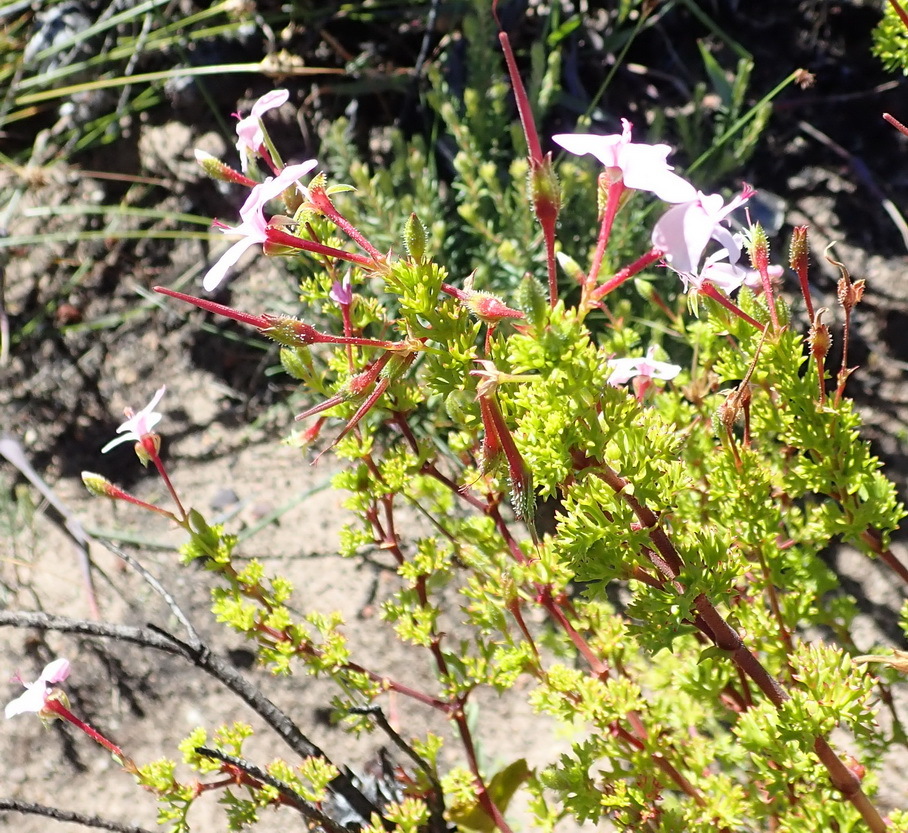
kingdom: Plantae
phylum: Tracheophyta
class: Magnoliopsida
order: Geraniales
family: Geraniaceae
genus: Pelargonium
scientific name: Pelargonium fruticosum
